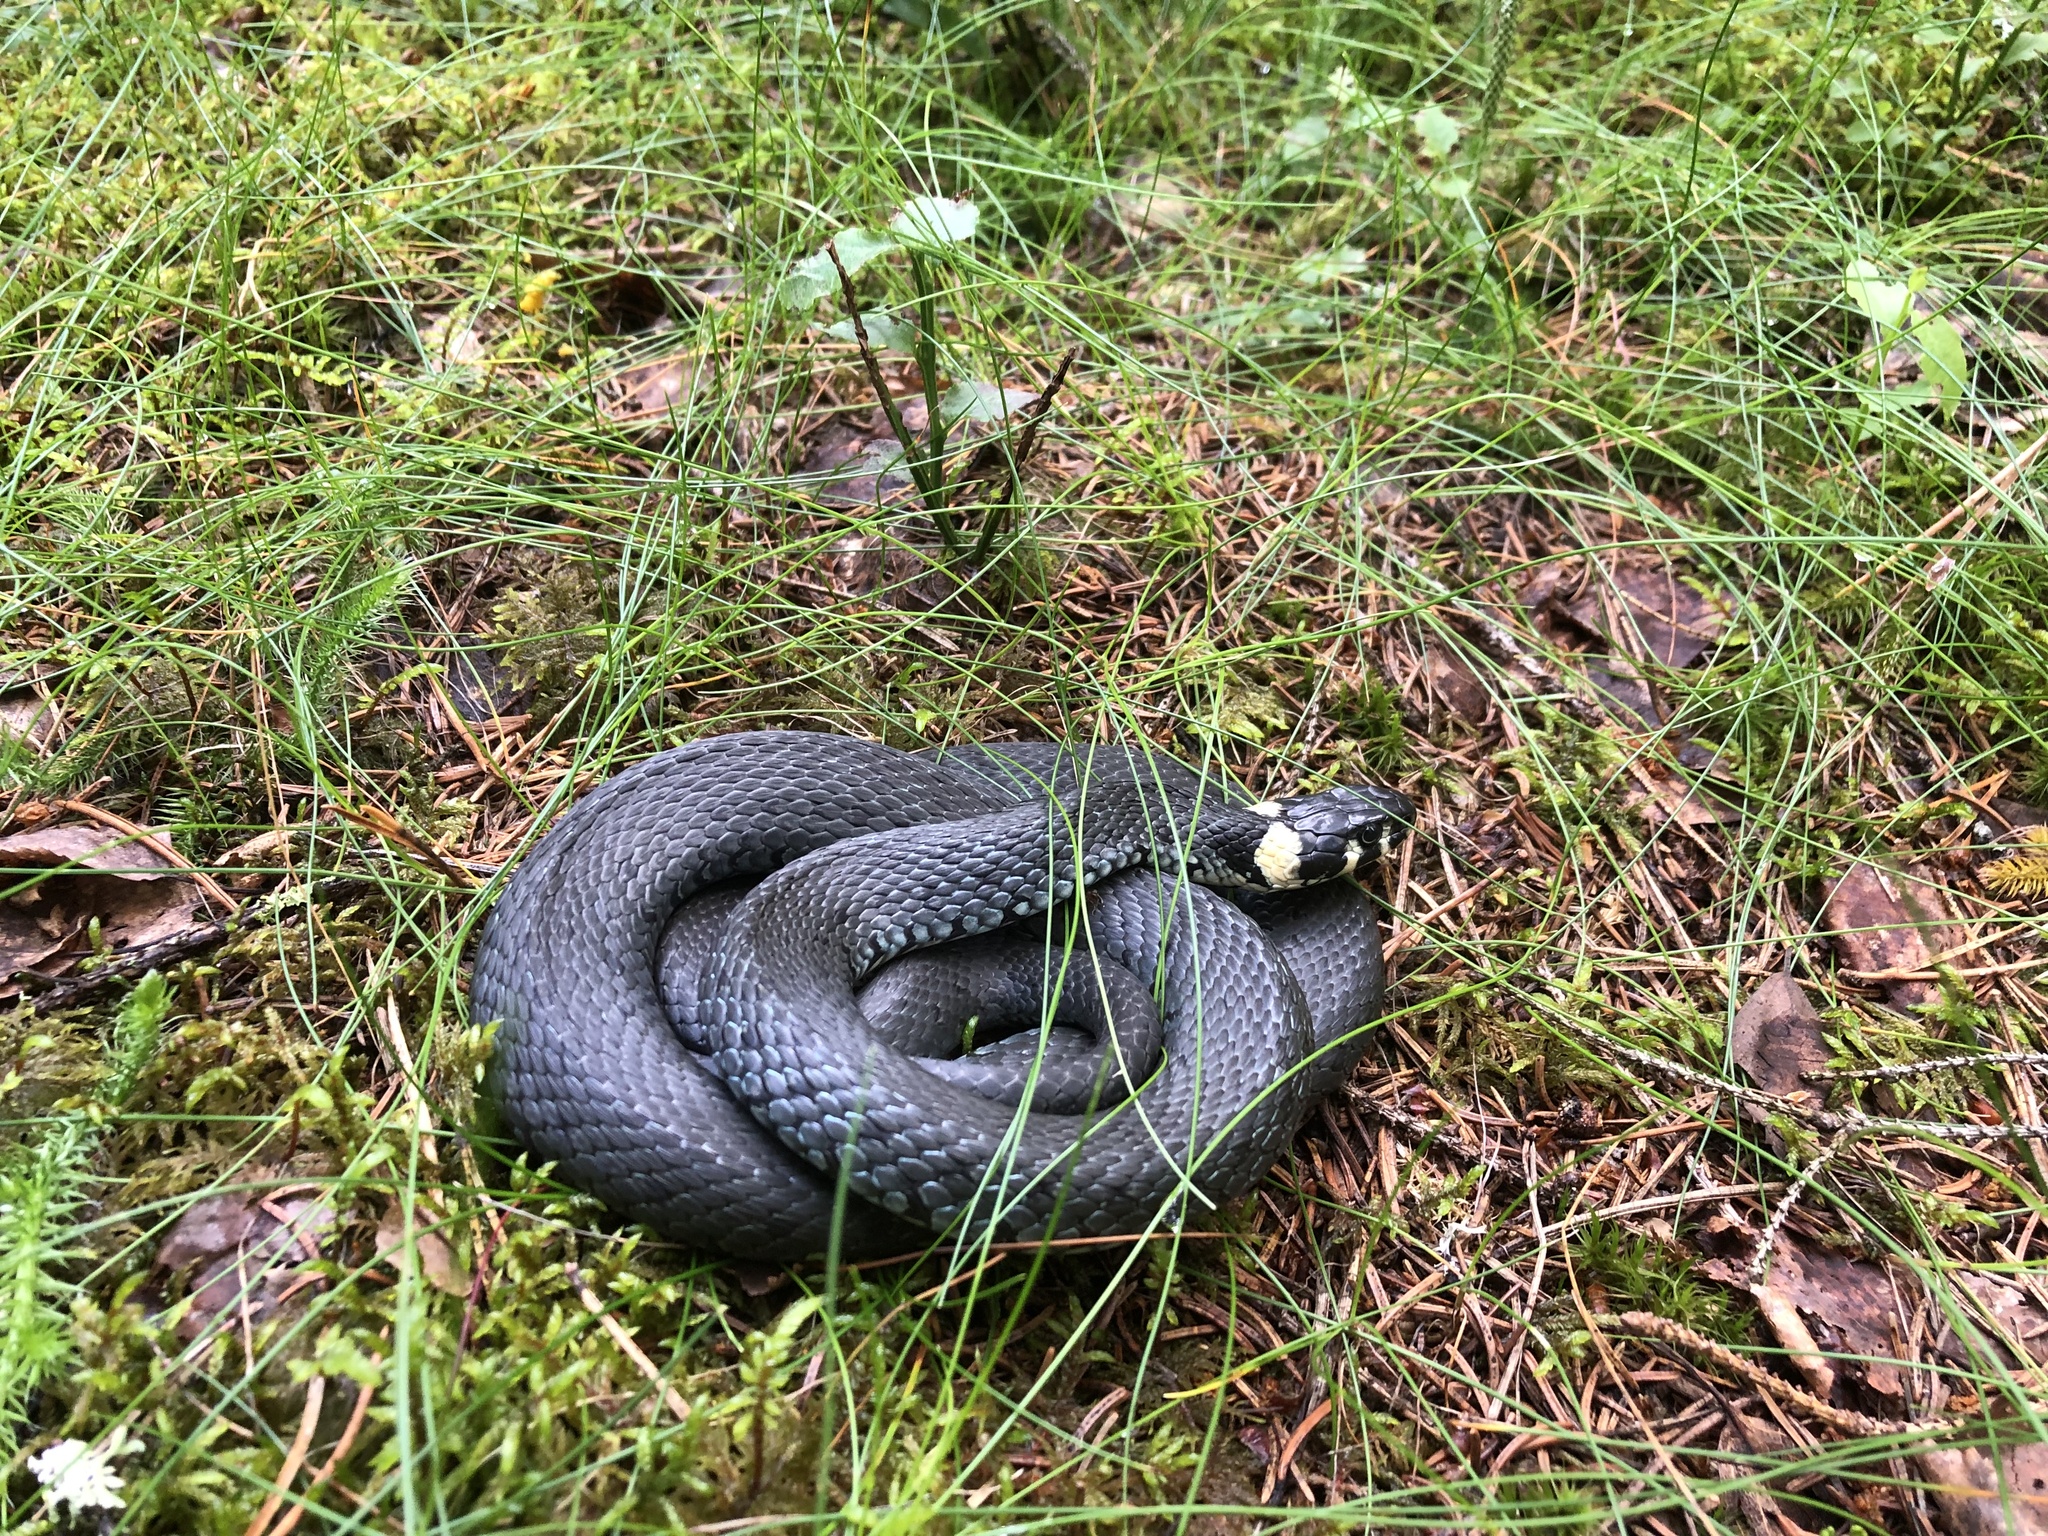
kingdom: Animalia
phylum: Chordata
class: Squamata
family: Colubridae
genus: Natrix
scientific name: Natrix natrix
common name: Grass snake
